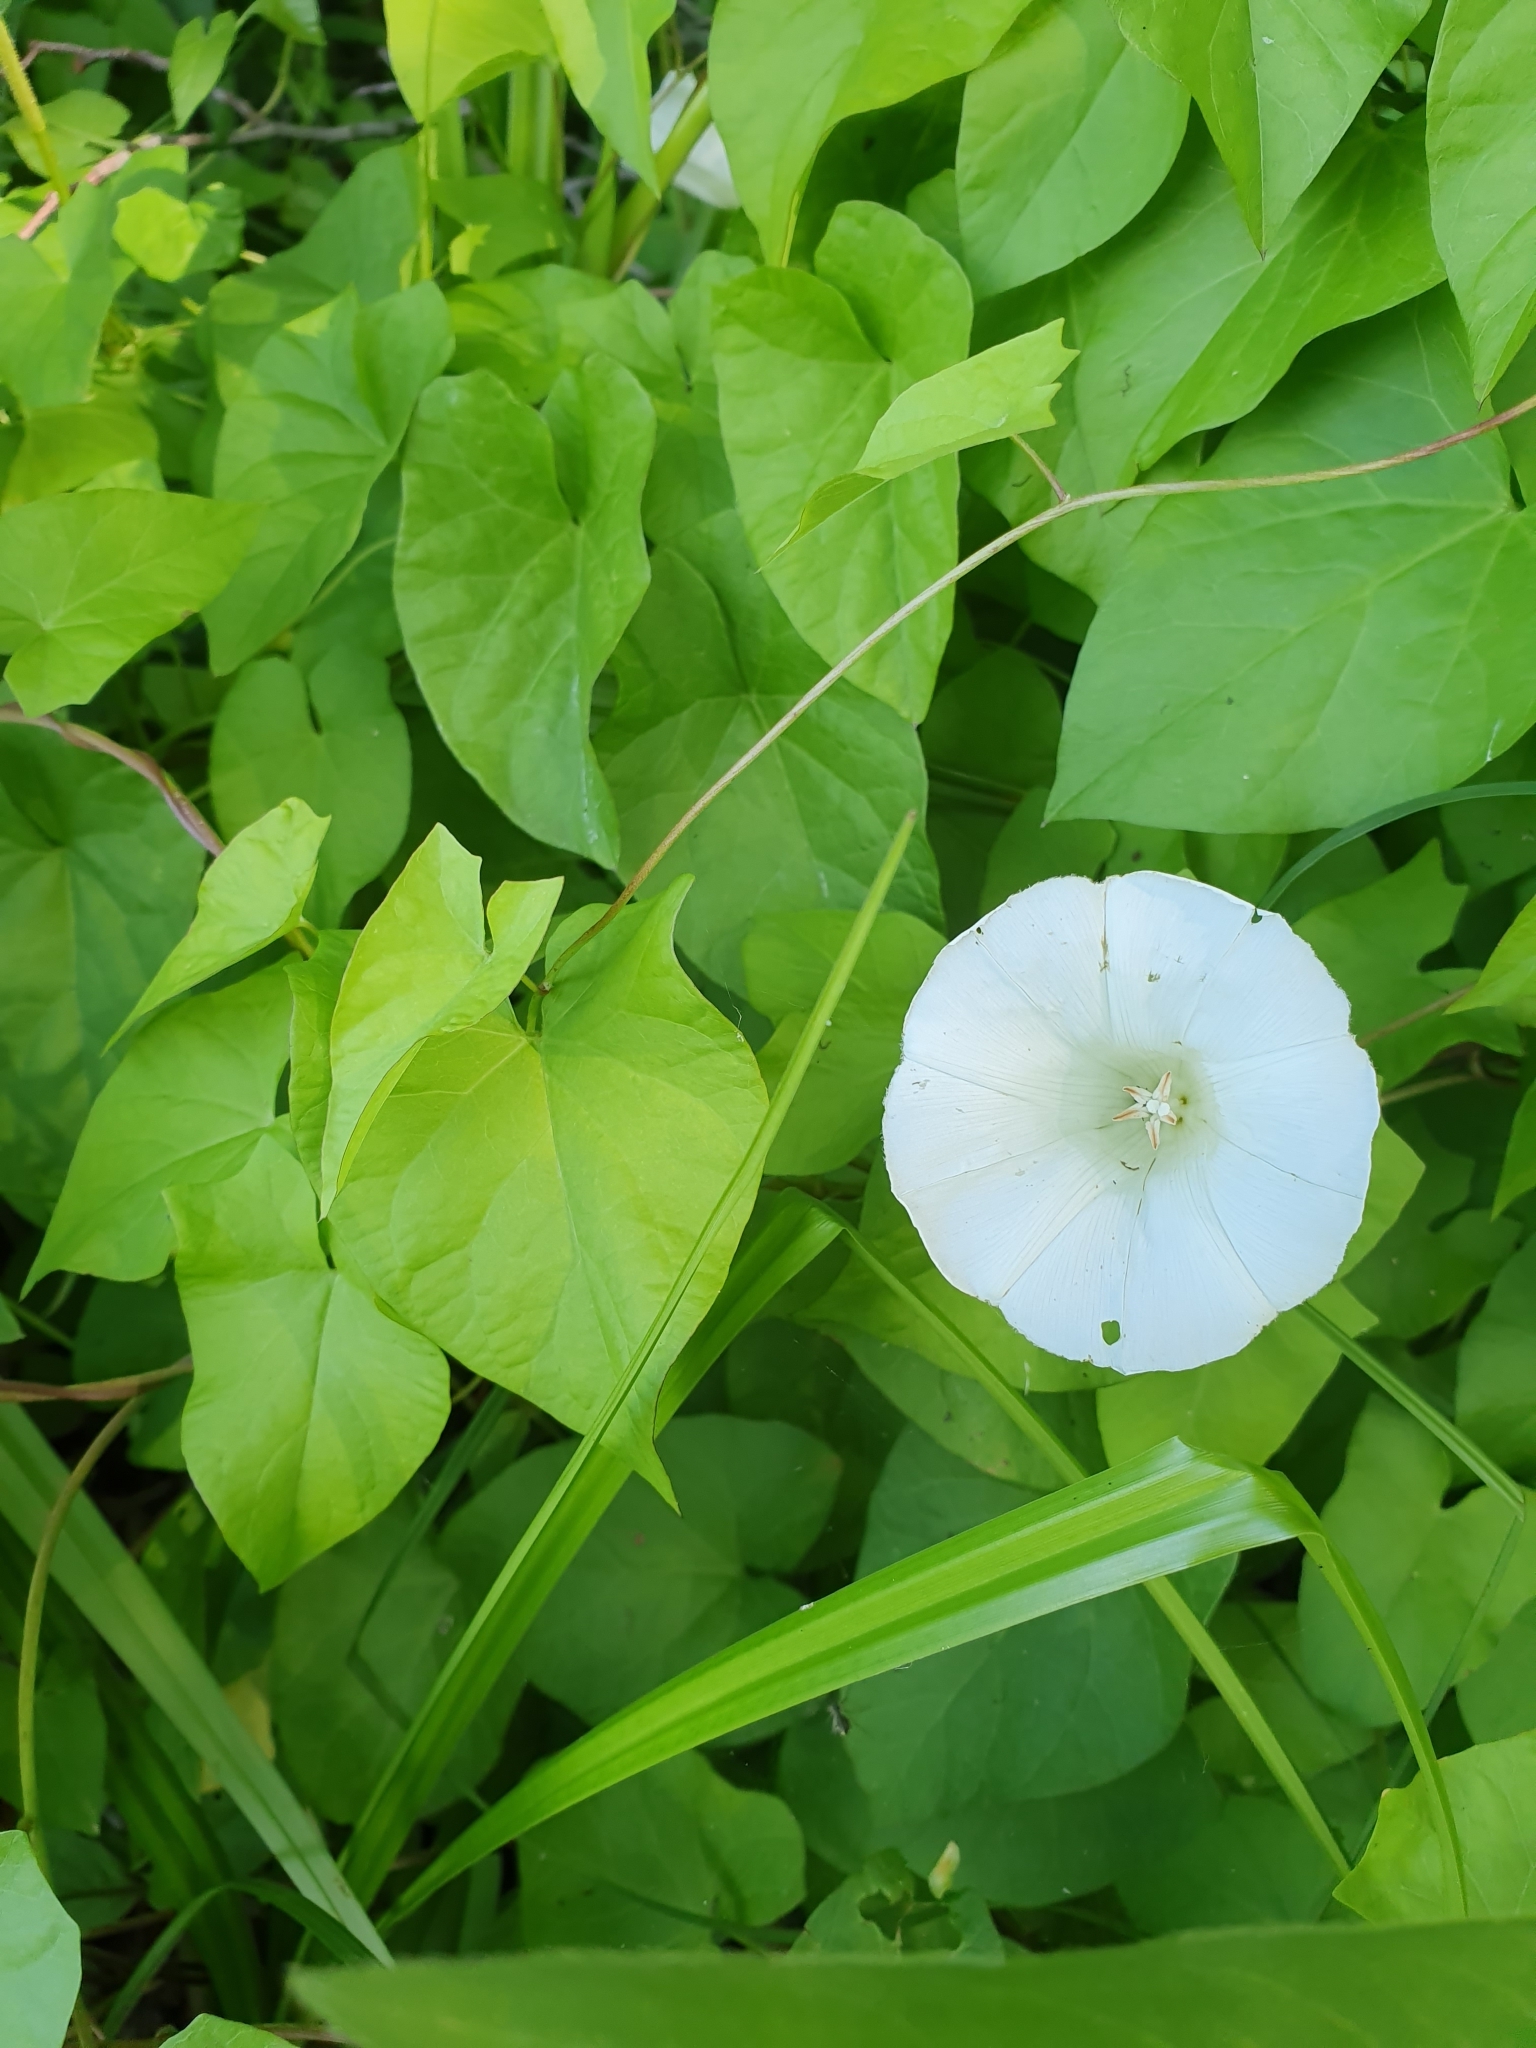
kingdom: Plantae
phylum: Tracheophyta
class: Magnoliopsida
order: Solanales
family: Convolvulaceae
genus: Calystegia
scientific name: Calystegia sepium
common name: Hedge bindweed
